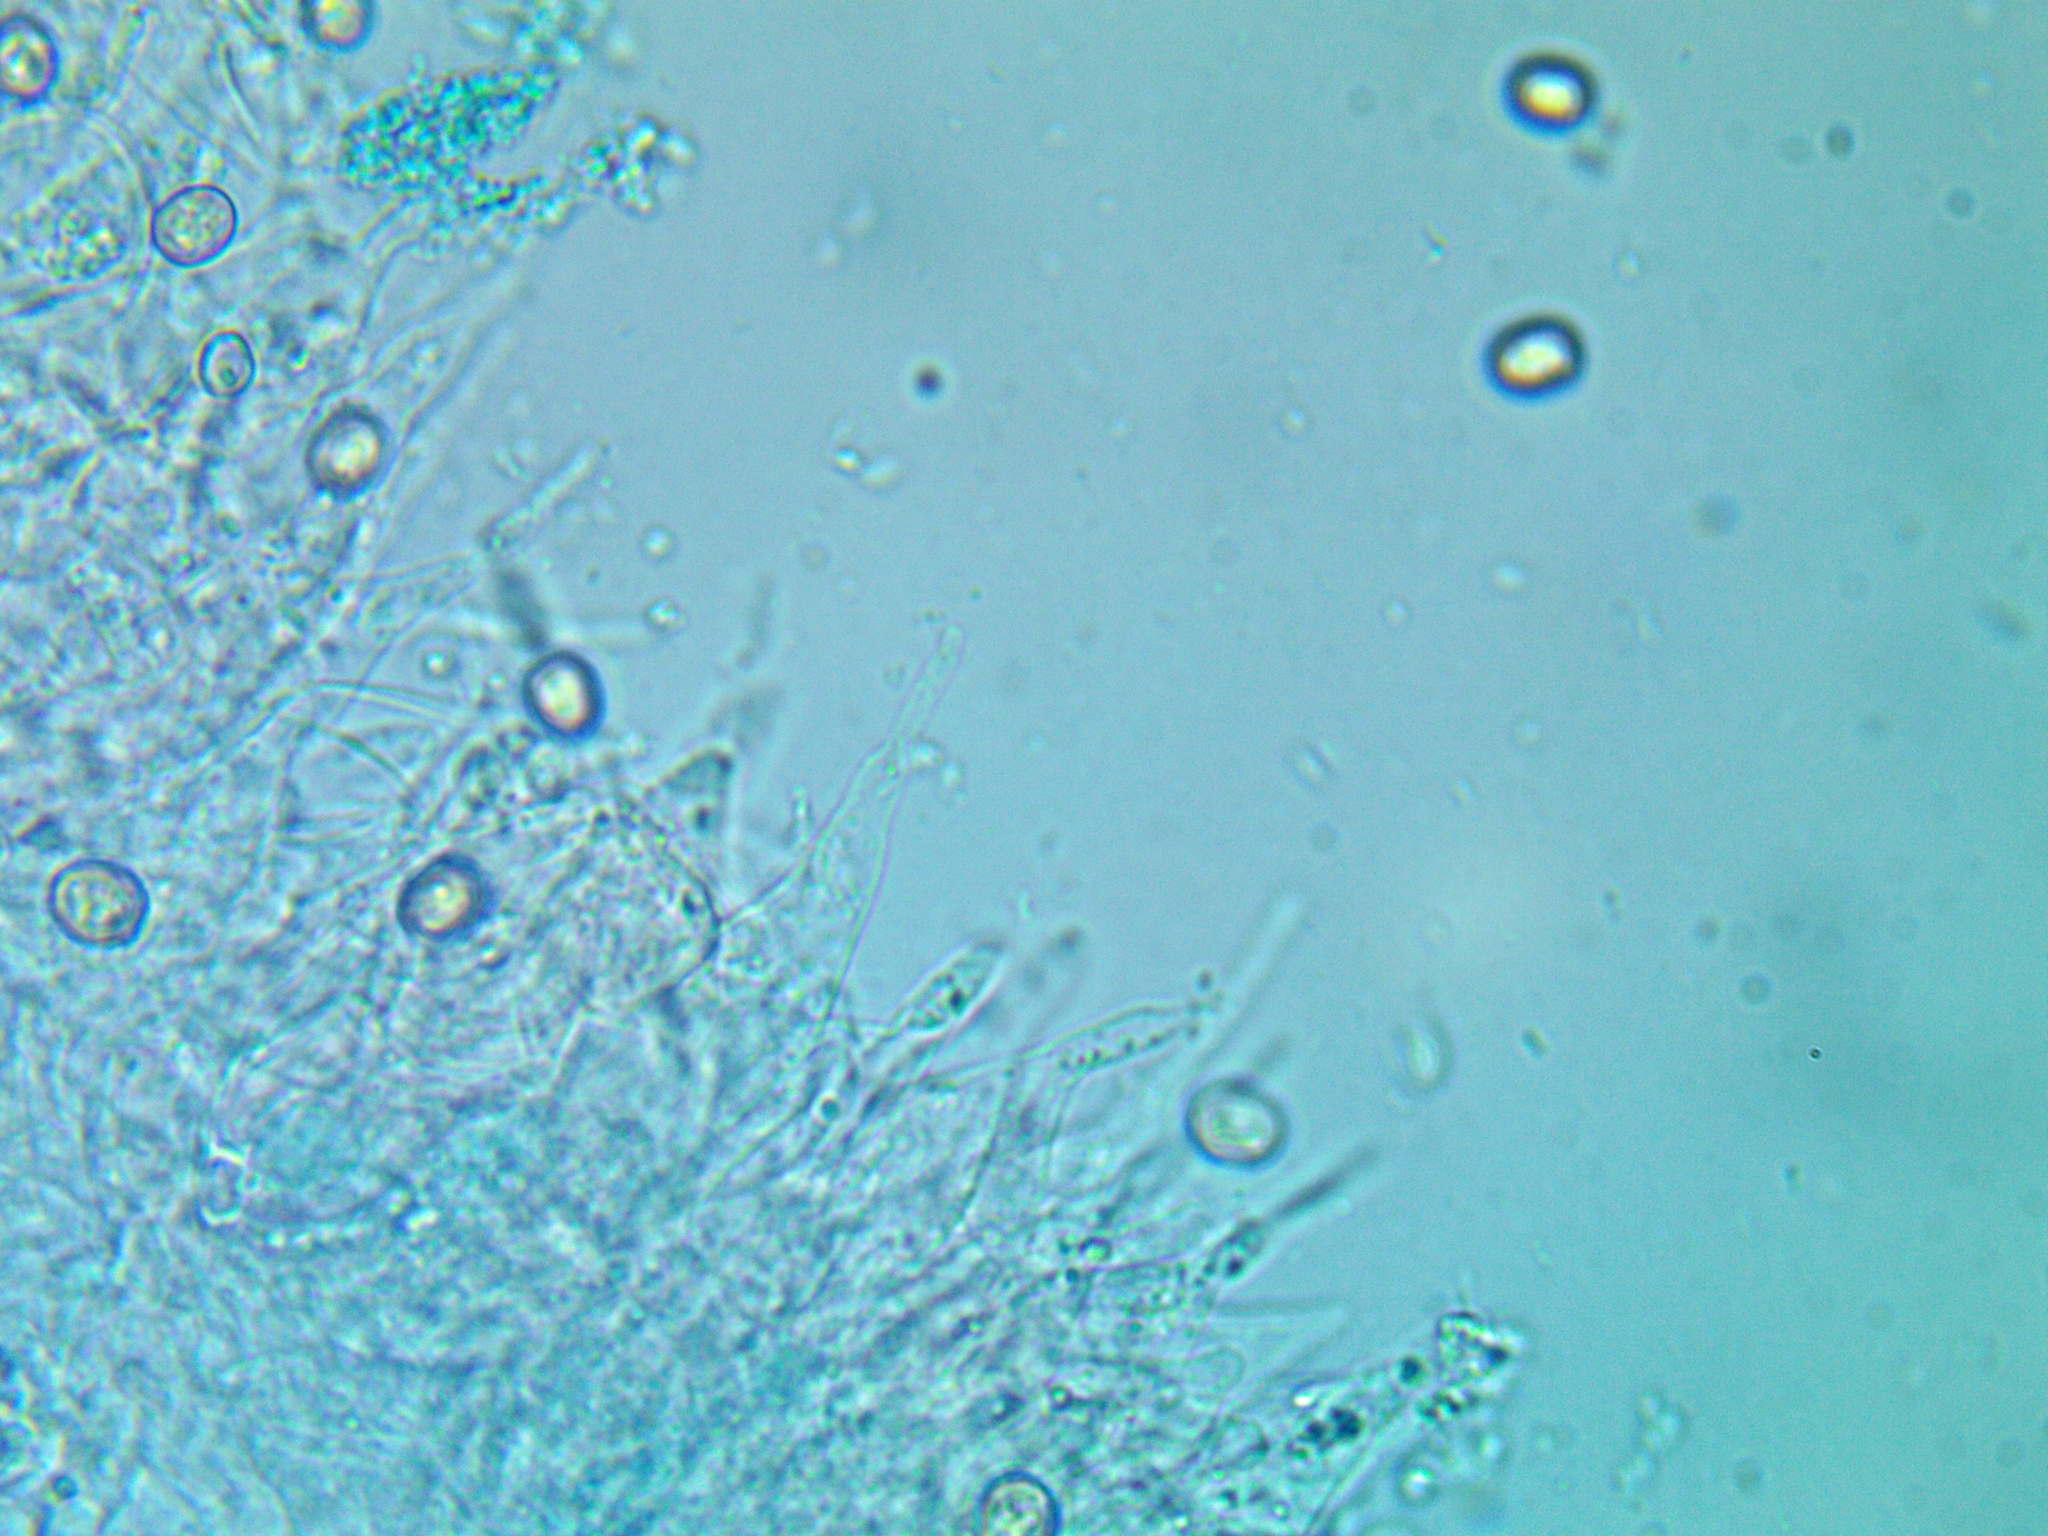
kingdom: Fungi
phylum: Basidiomycota
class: Agaricomycetes
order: Agaricales
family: Pluteaceae
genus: Pluteus
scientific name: Pluteus thomsonii
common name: Veined shield
